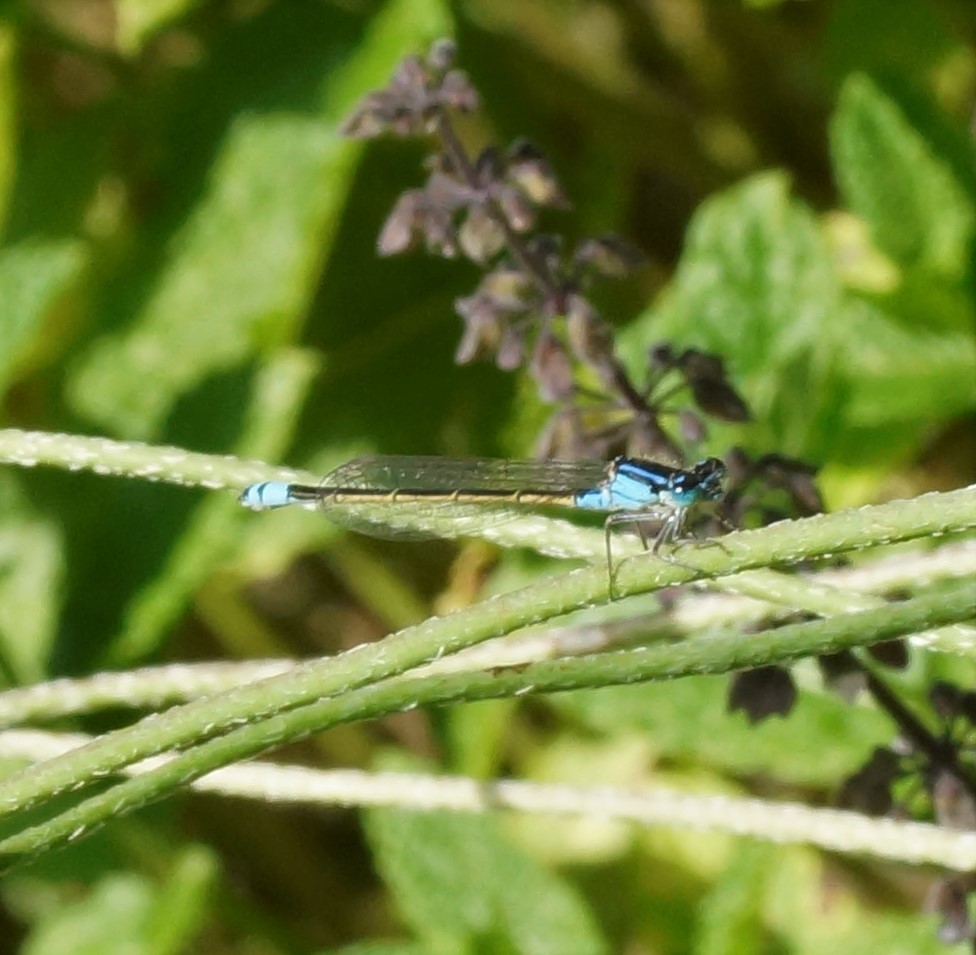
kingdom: Animalia
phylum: Arthropoda
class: Insecta
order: Odonata
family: Coenagrionidae
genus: Ischnura
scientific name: Ischnura heterosticta
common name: Common bluetail
